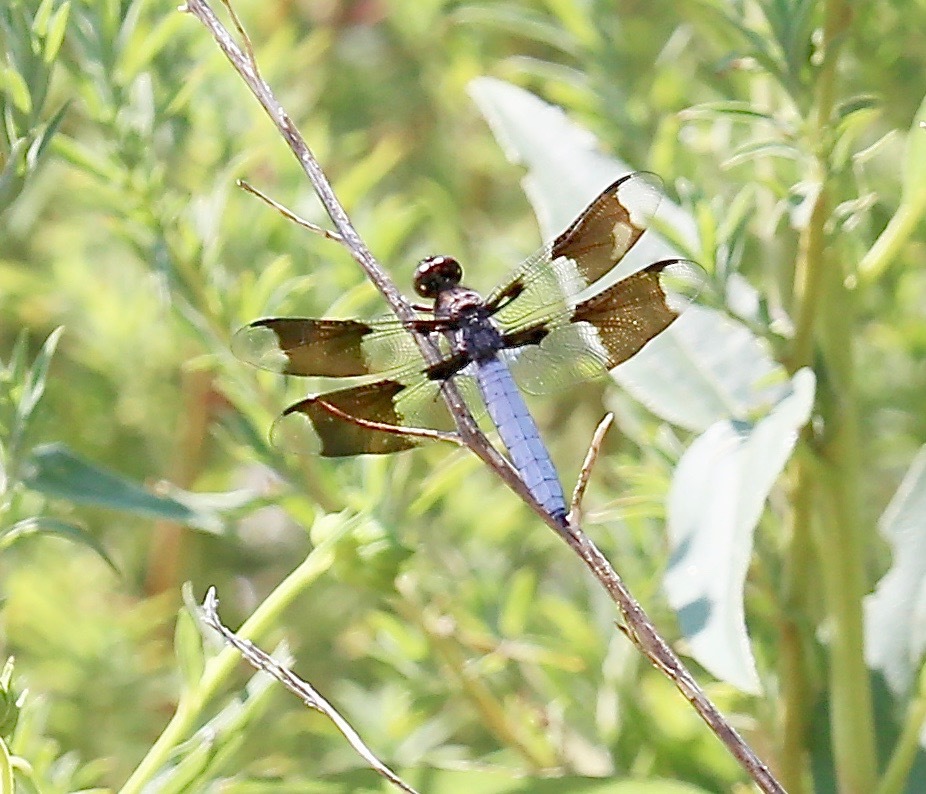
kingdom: Animalia
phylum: Arthropoda
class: Insecta
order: Odonata
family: Libellulidae
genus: Plathemis
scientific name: Plathemis lydia
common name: Common whitetail
